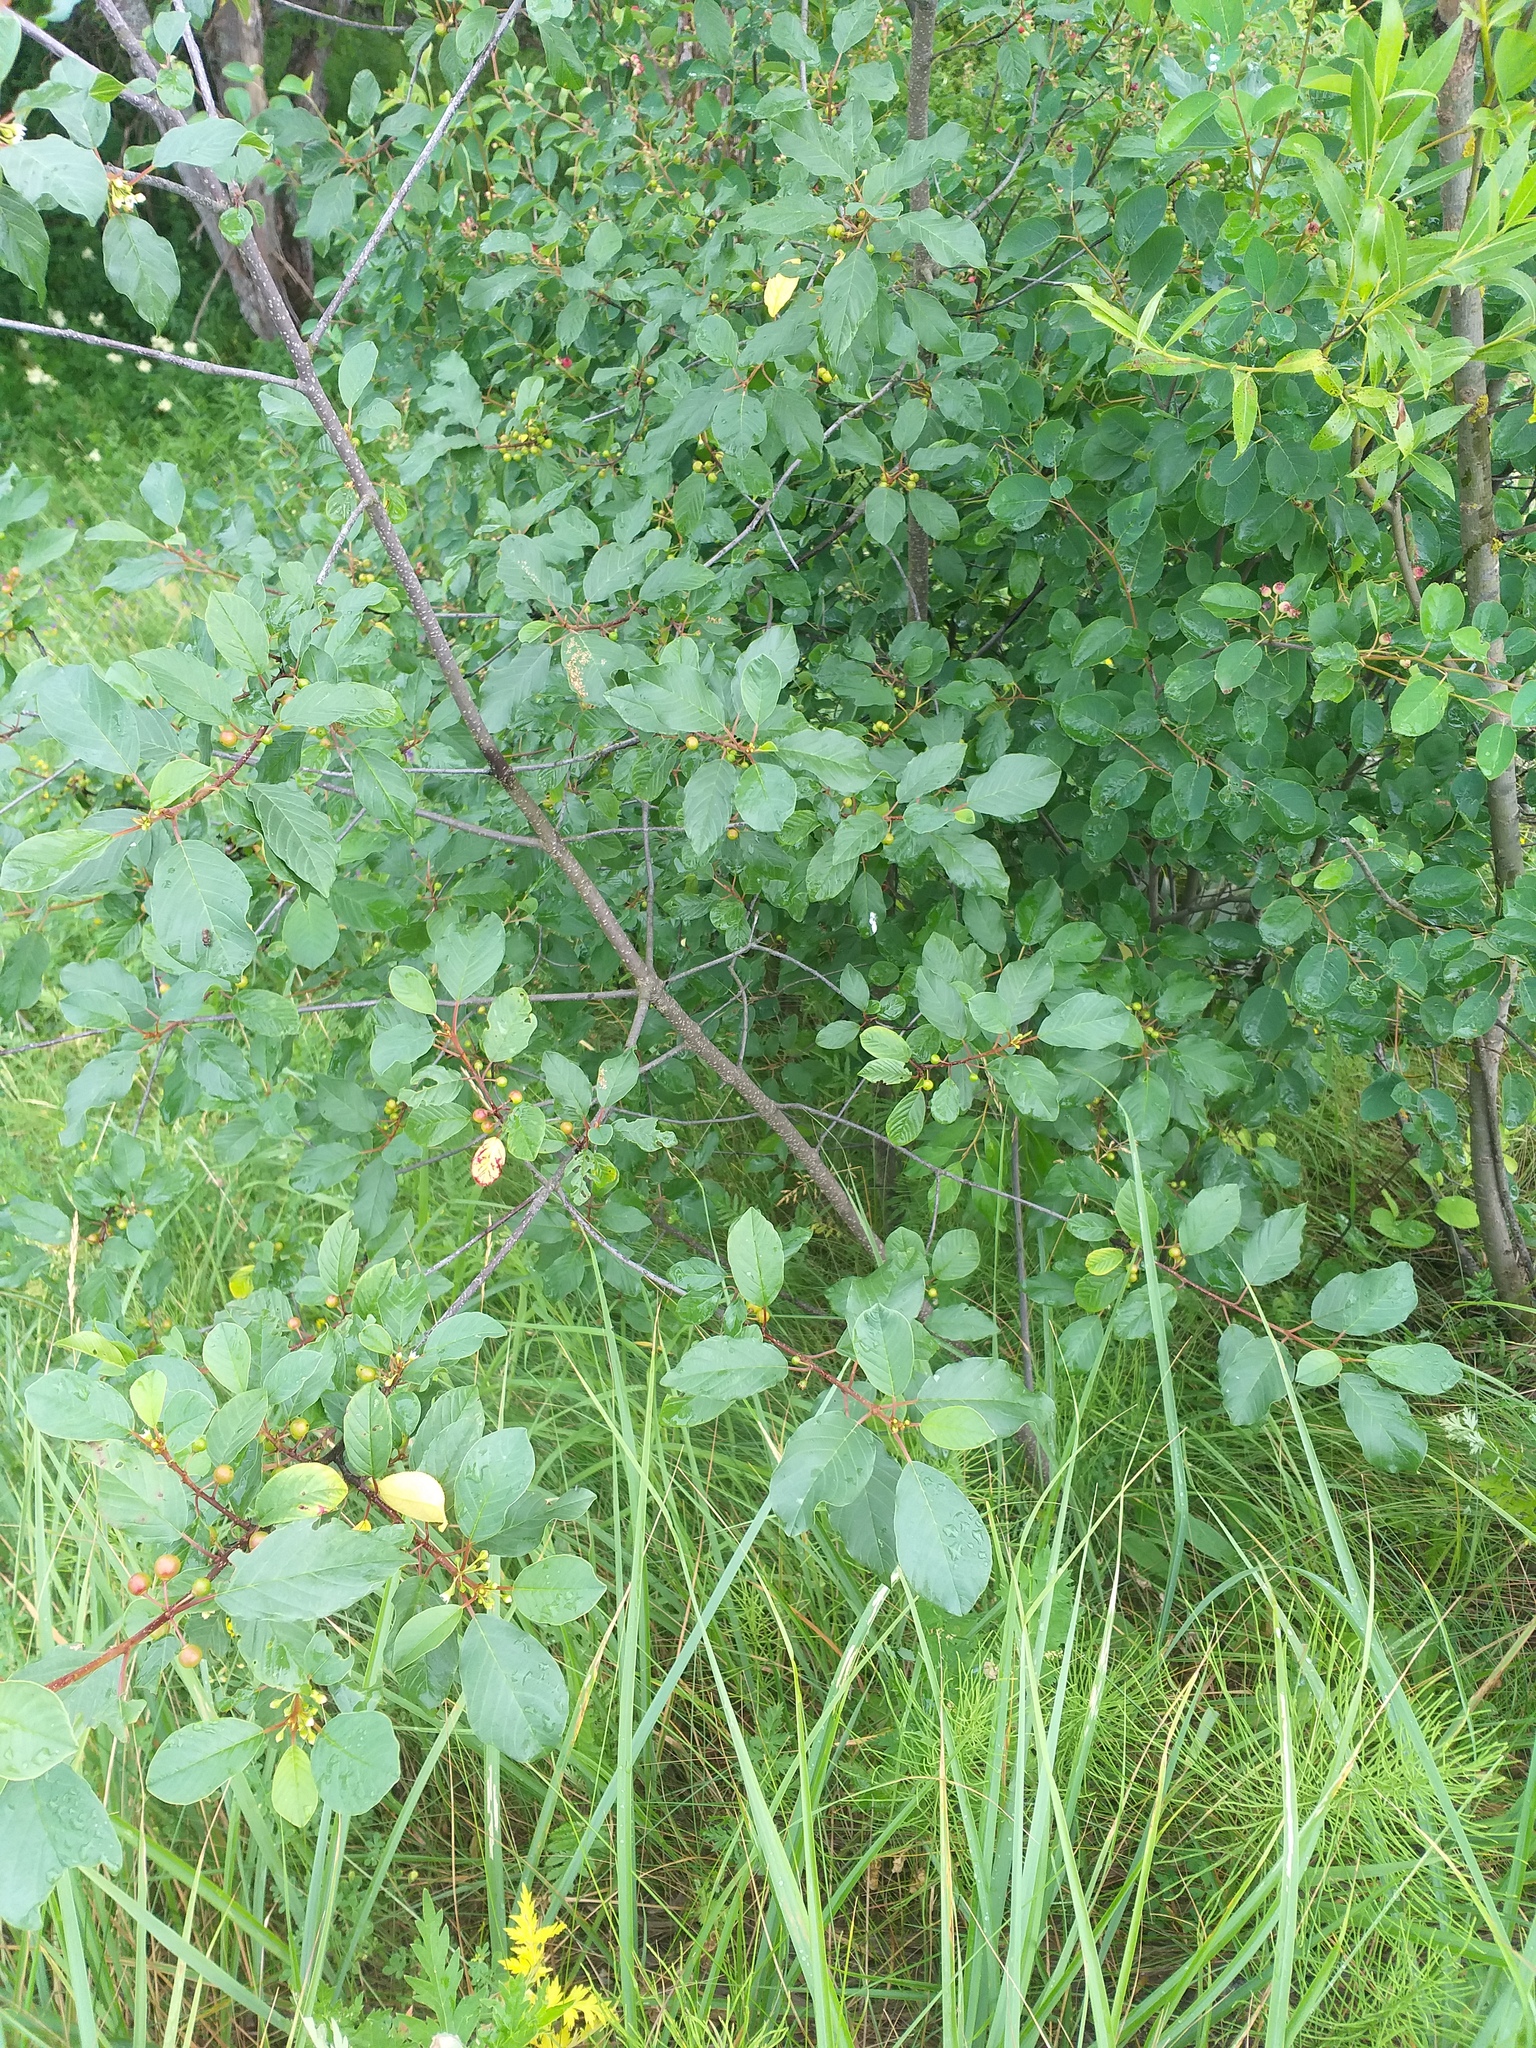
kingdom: Plantae
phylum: Tracheophyta
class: Magnoliopsida
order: Rosales
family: Rhamnaceae
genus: Frangula
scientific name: Frangula alnus
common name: Alder buckthorn
